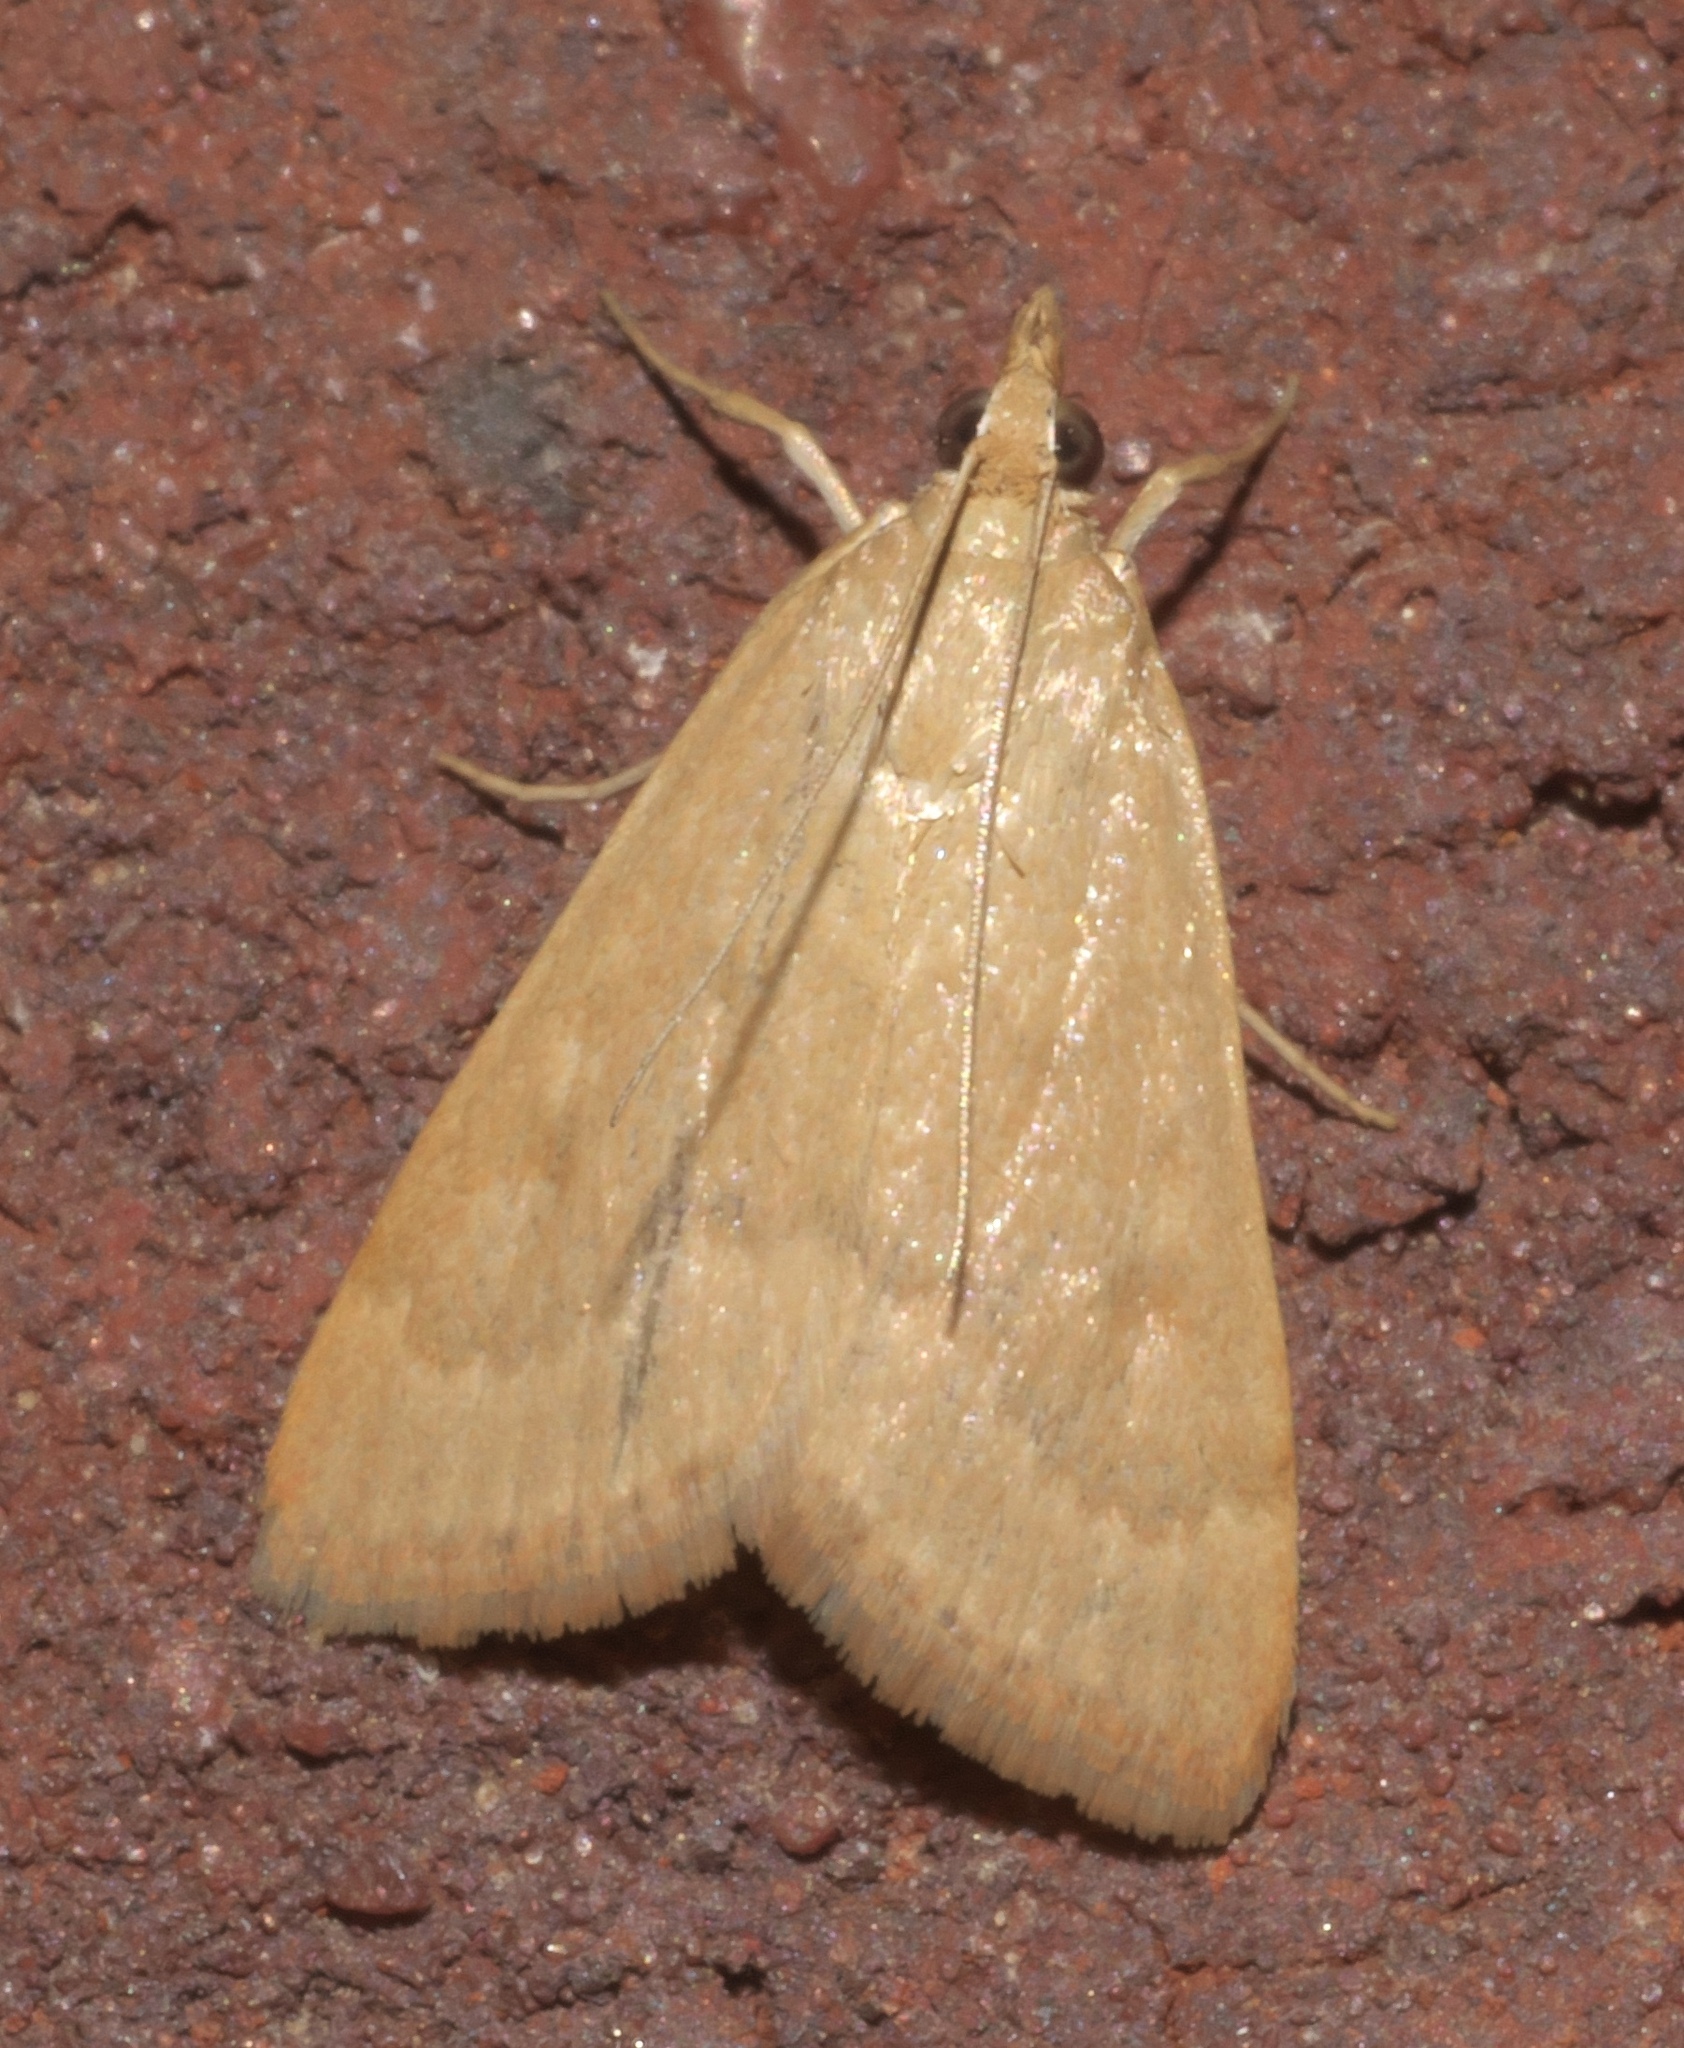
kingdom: Animalia
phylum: Arthropoda
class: Insecta
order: Lepidoptera
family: Crambidae
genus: Achyra
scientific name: Achyra rantalis
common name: Garden webworm
